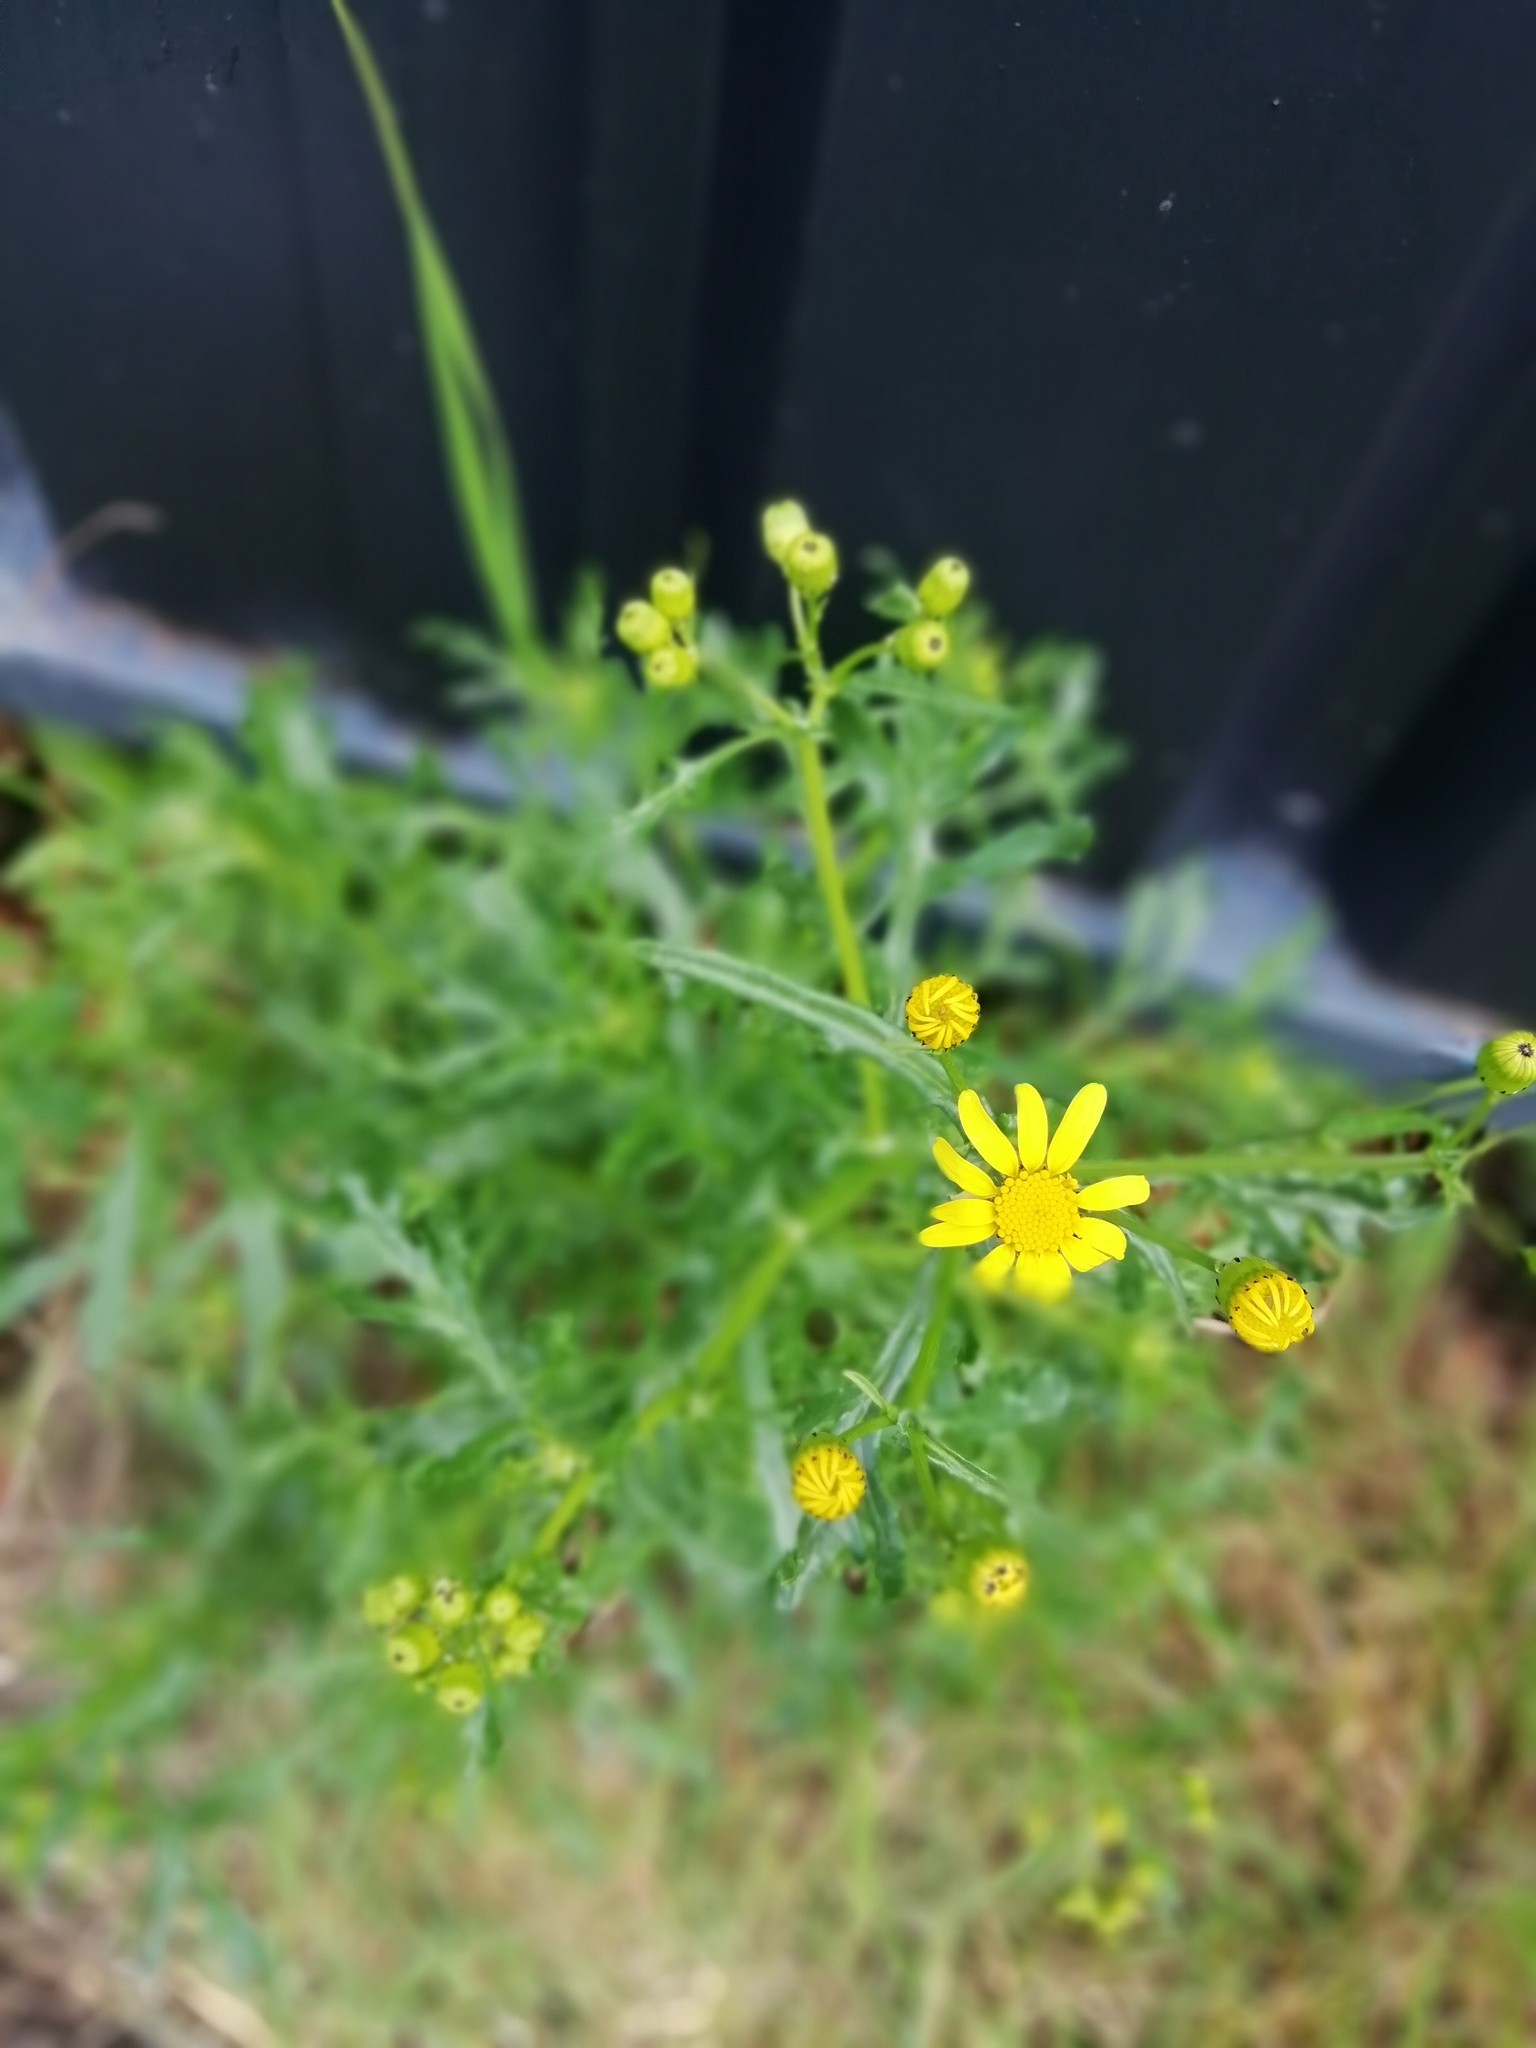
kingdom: Plantae
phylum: Tracheophyta
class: Magnoliopsida
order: Asterales
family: Asteraceae
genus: Senecio
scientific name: Senecio squalidus
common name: Oxford ragwort
